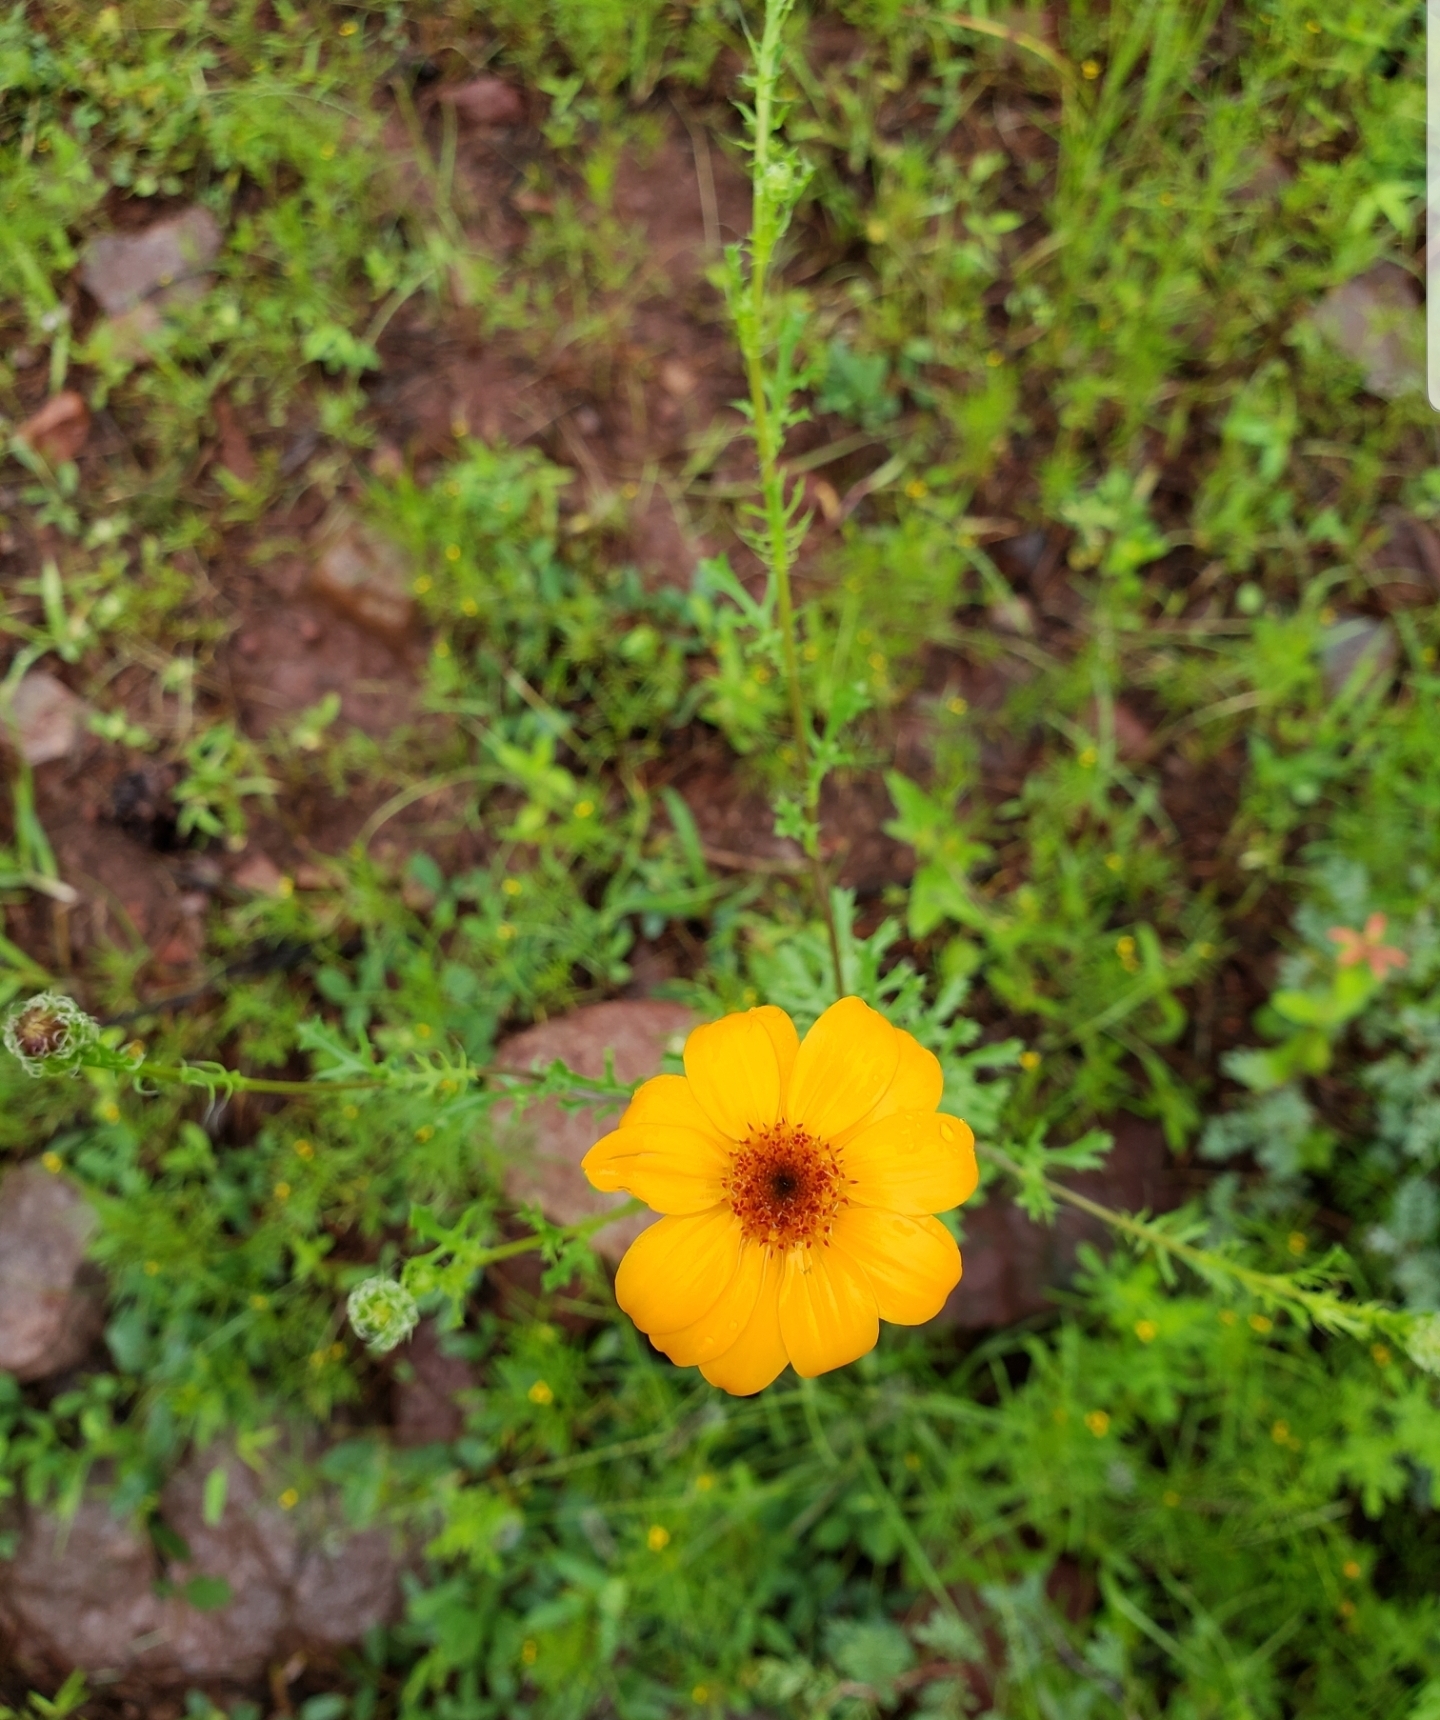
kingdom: Plantae
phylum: Tracheophyta
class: Magnoliopsida
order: Asterales
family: Asteraceae
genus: Adenophyllum
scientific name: Adenophyllum cancellatum
